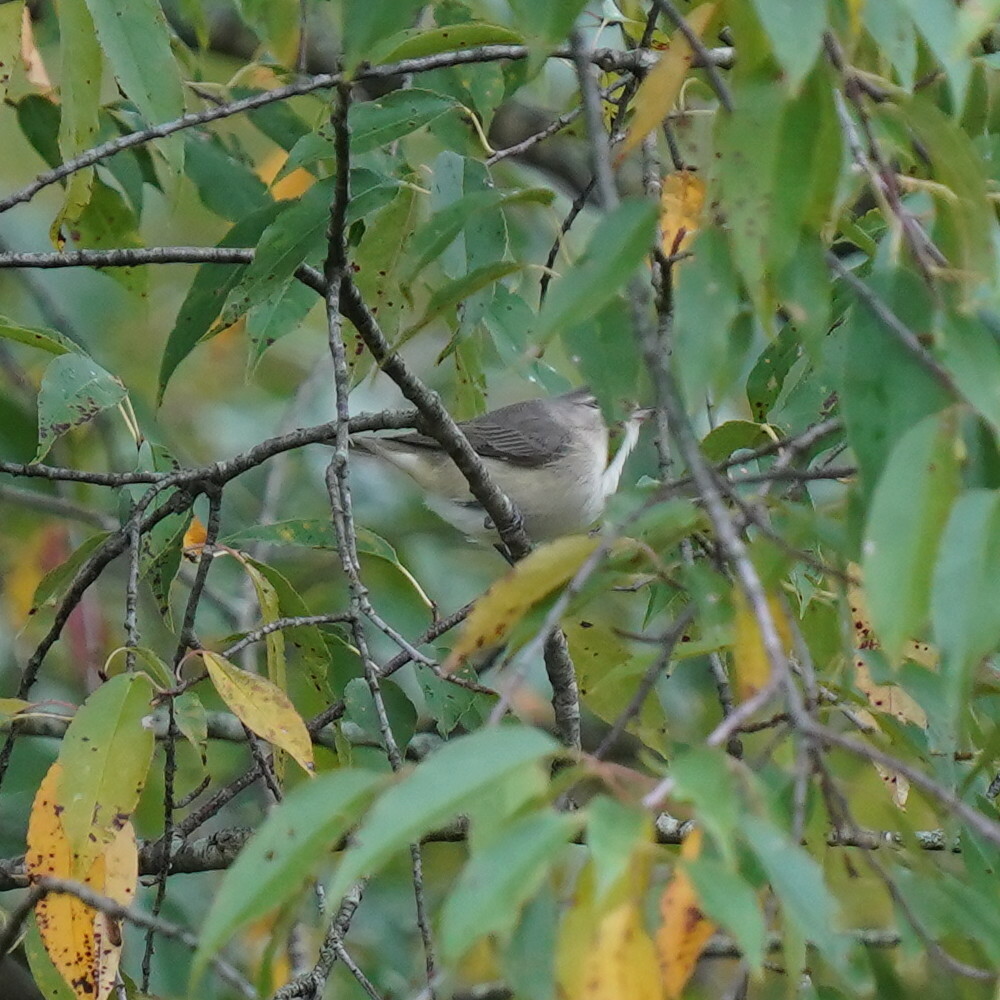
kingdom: Animalia
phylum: Chordata
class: Aves
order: Passeriformes
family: Vireonidae
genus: Vireo
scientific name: Vireo gilvus
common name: Warbling vireo
